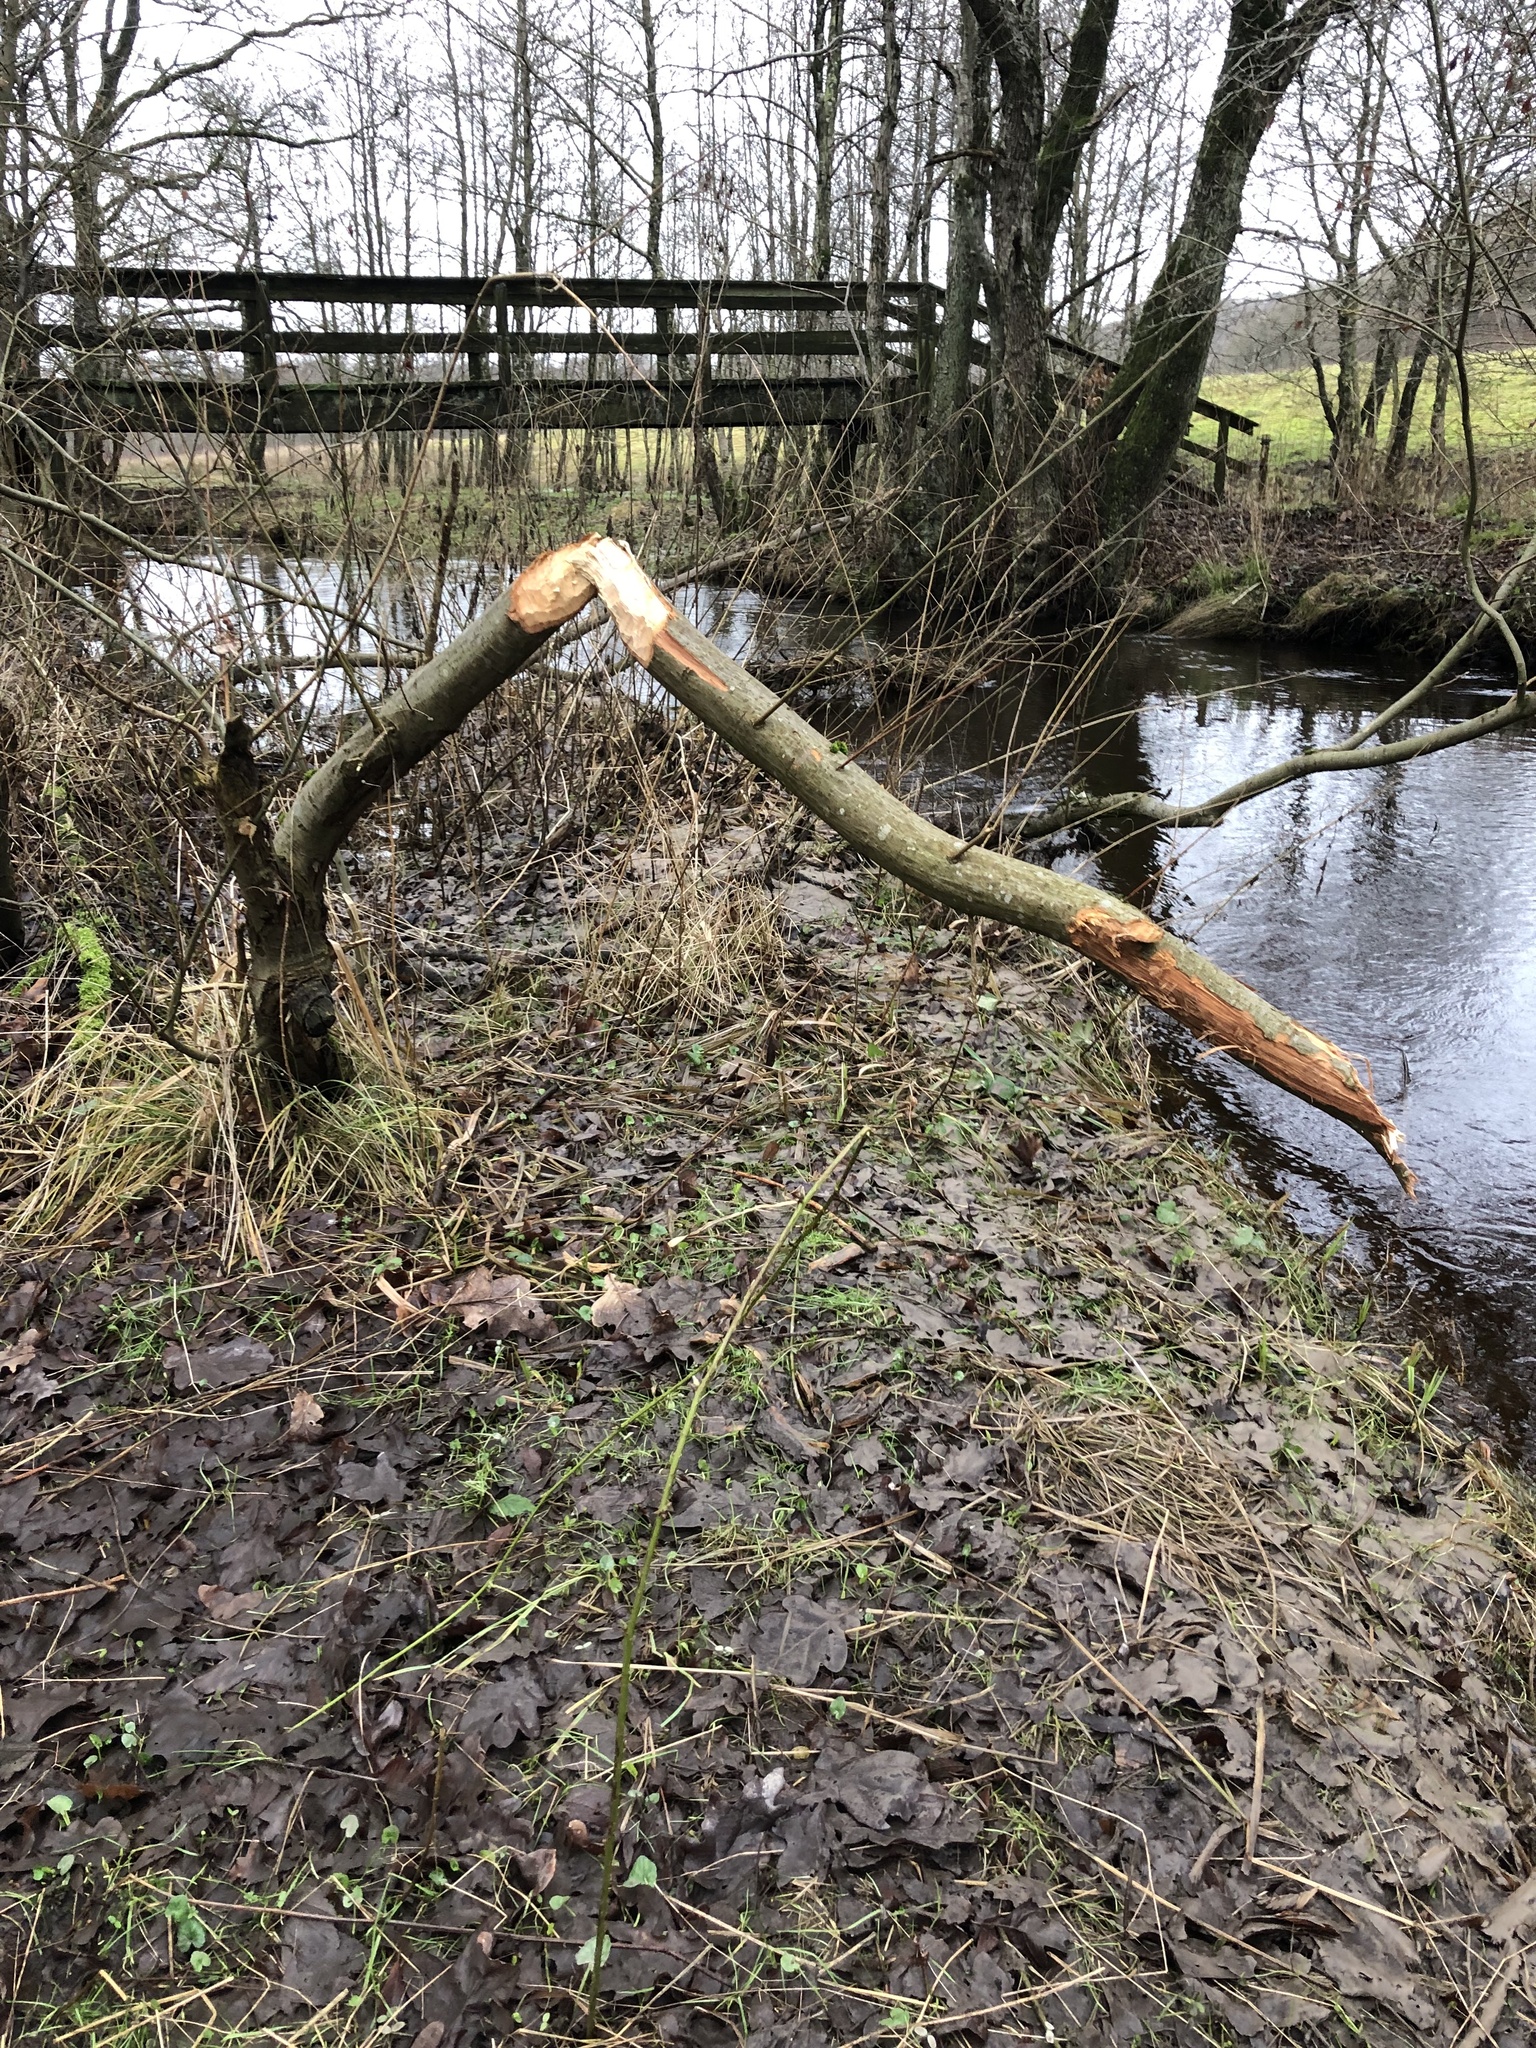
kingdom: Animalia
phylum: Chordata
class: Mammalia
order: Rodentia
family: Castoridae
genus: Castor
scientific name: Castor fiber
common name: Eurasian beaver
